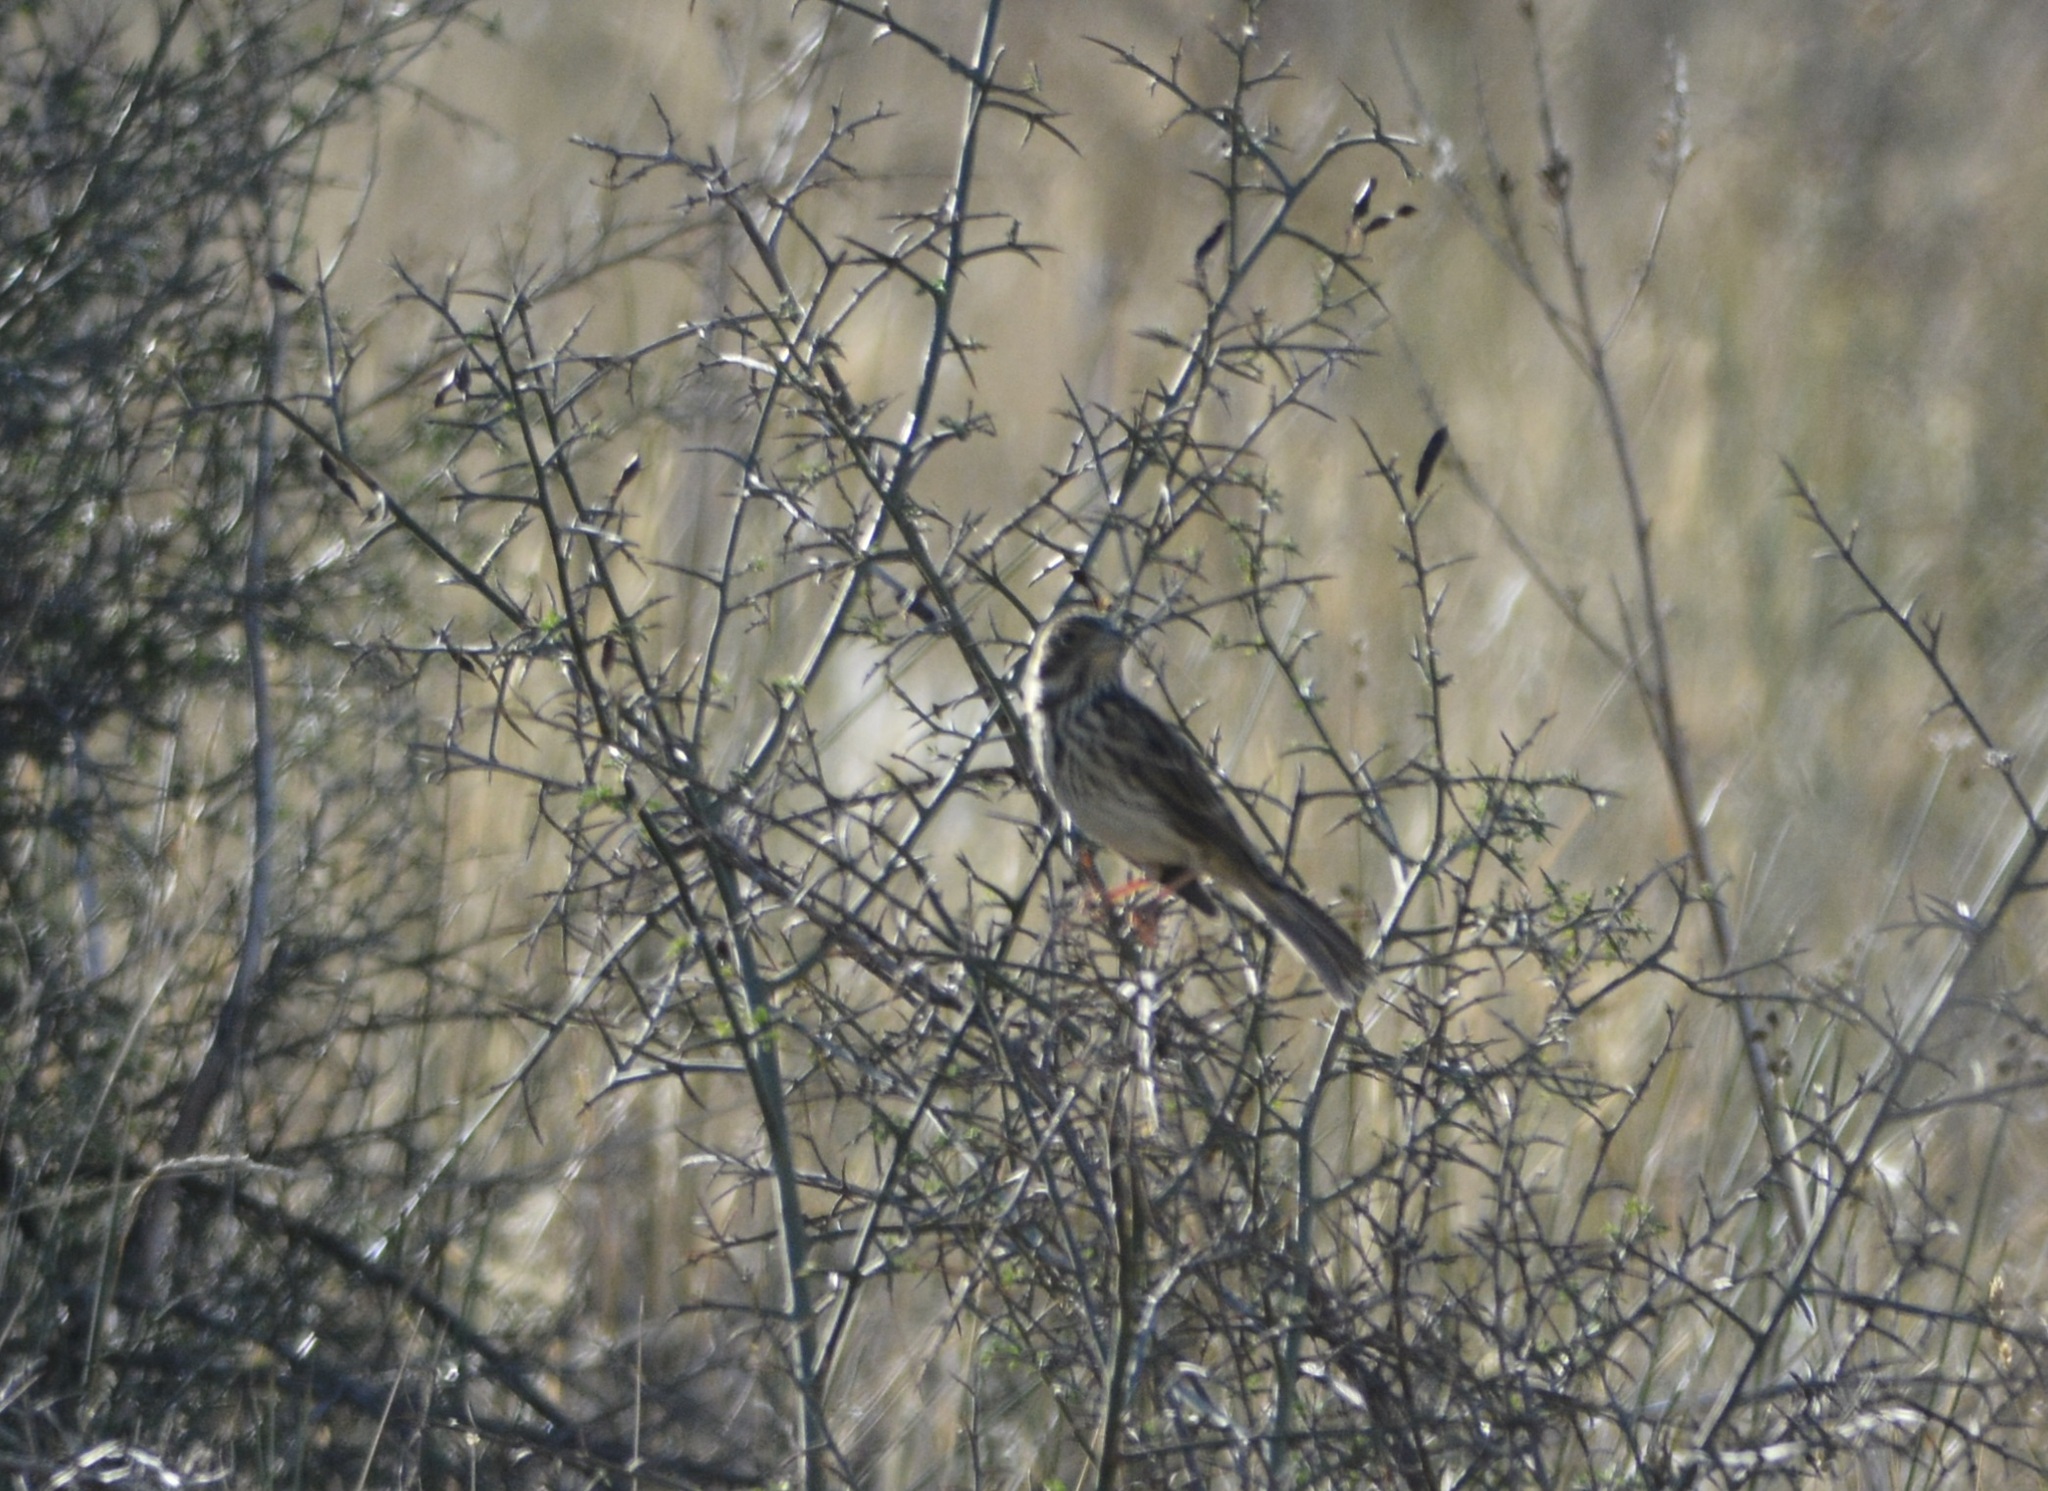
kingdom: Animalia
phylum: Chordata
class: Aves
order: Passeriformes
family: Emberizidae
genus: Emberiza
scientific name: Emberiza calandra
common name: Corn bunting
